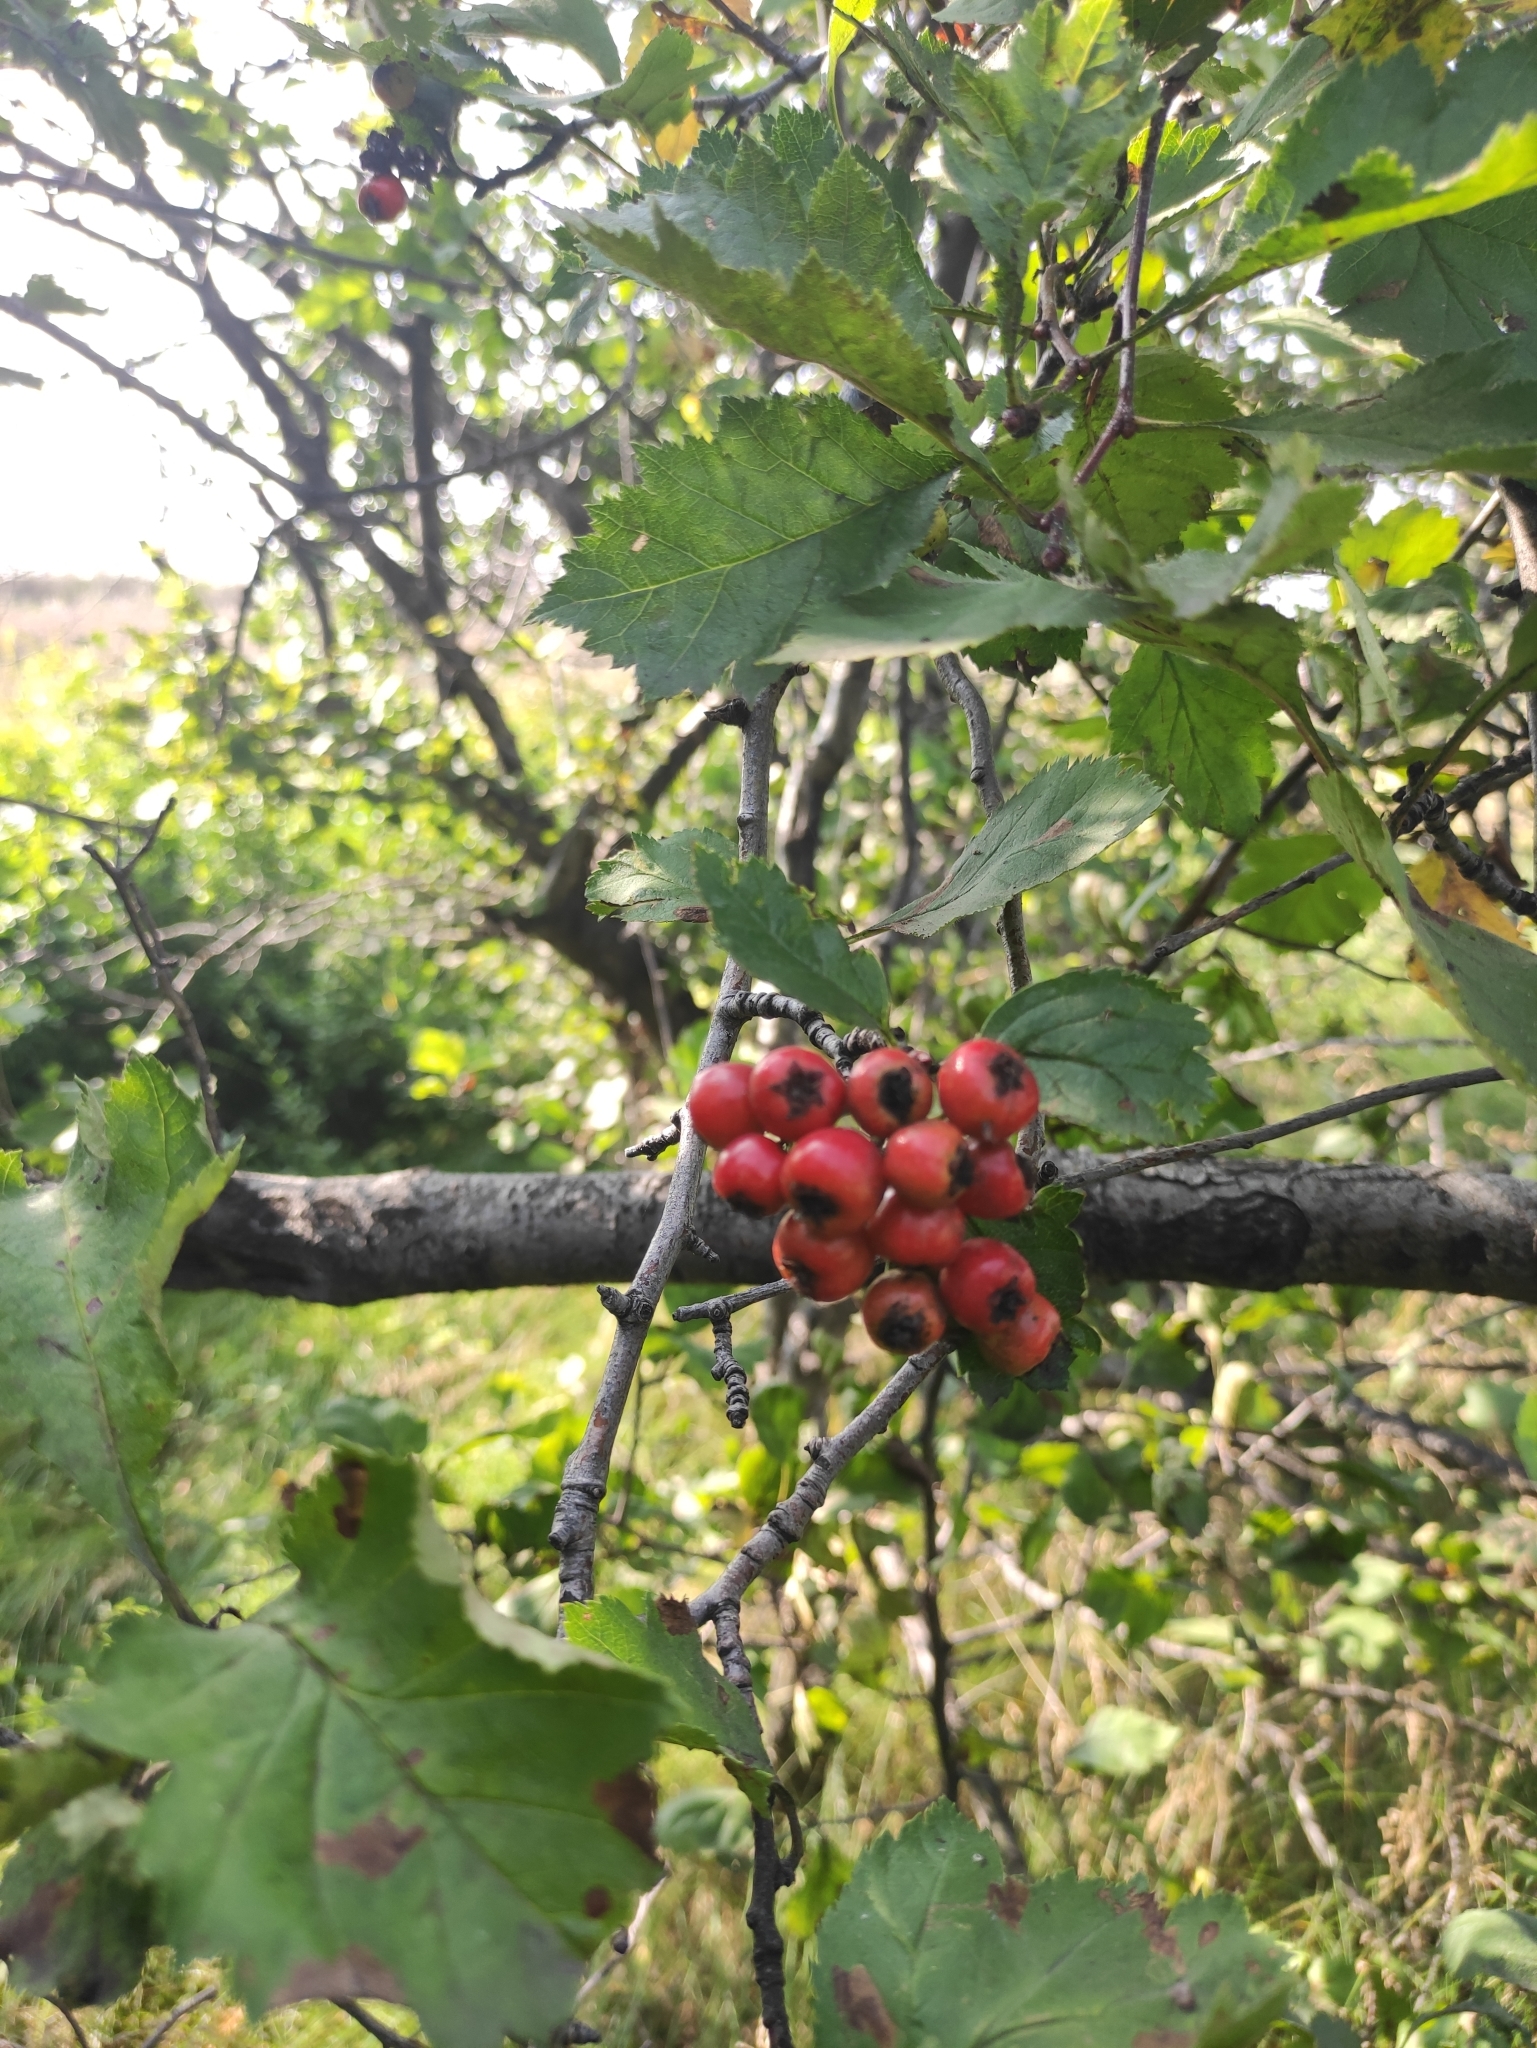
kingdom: Plantae
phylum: Tracheophyta
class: Magnoliopsida
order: Rosales
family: Rosaceae
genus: Crataegus
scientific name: Crataegus sanguinea
